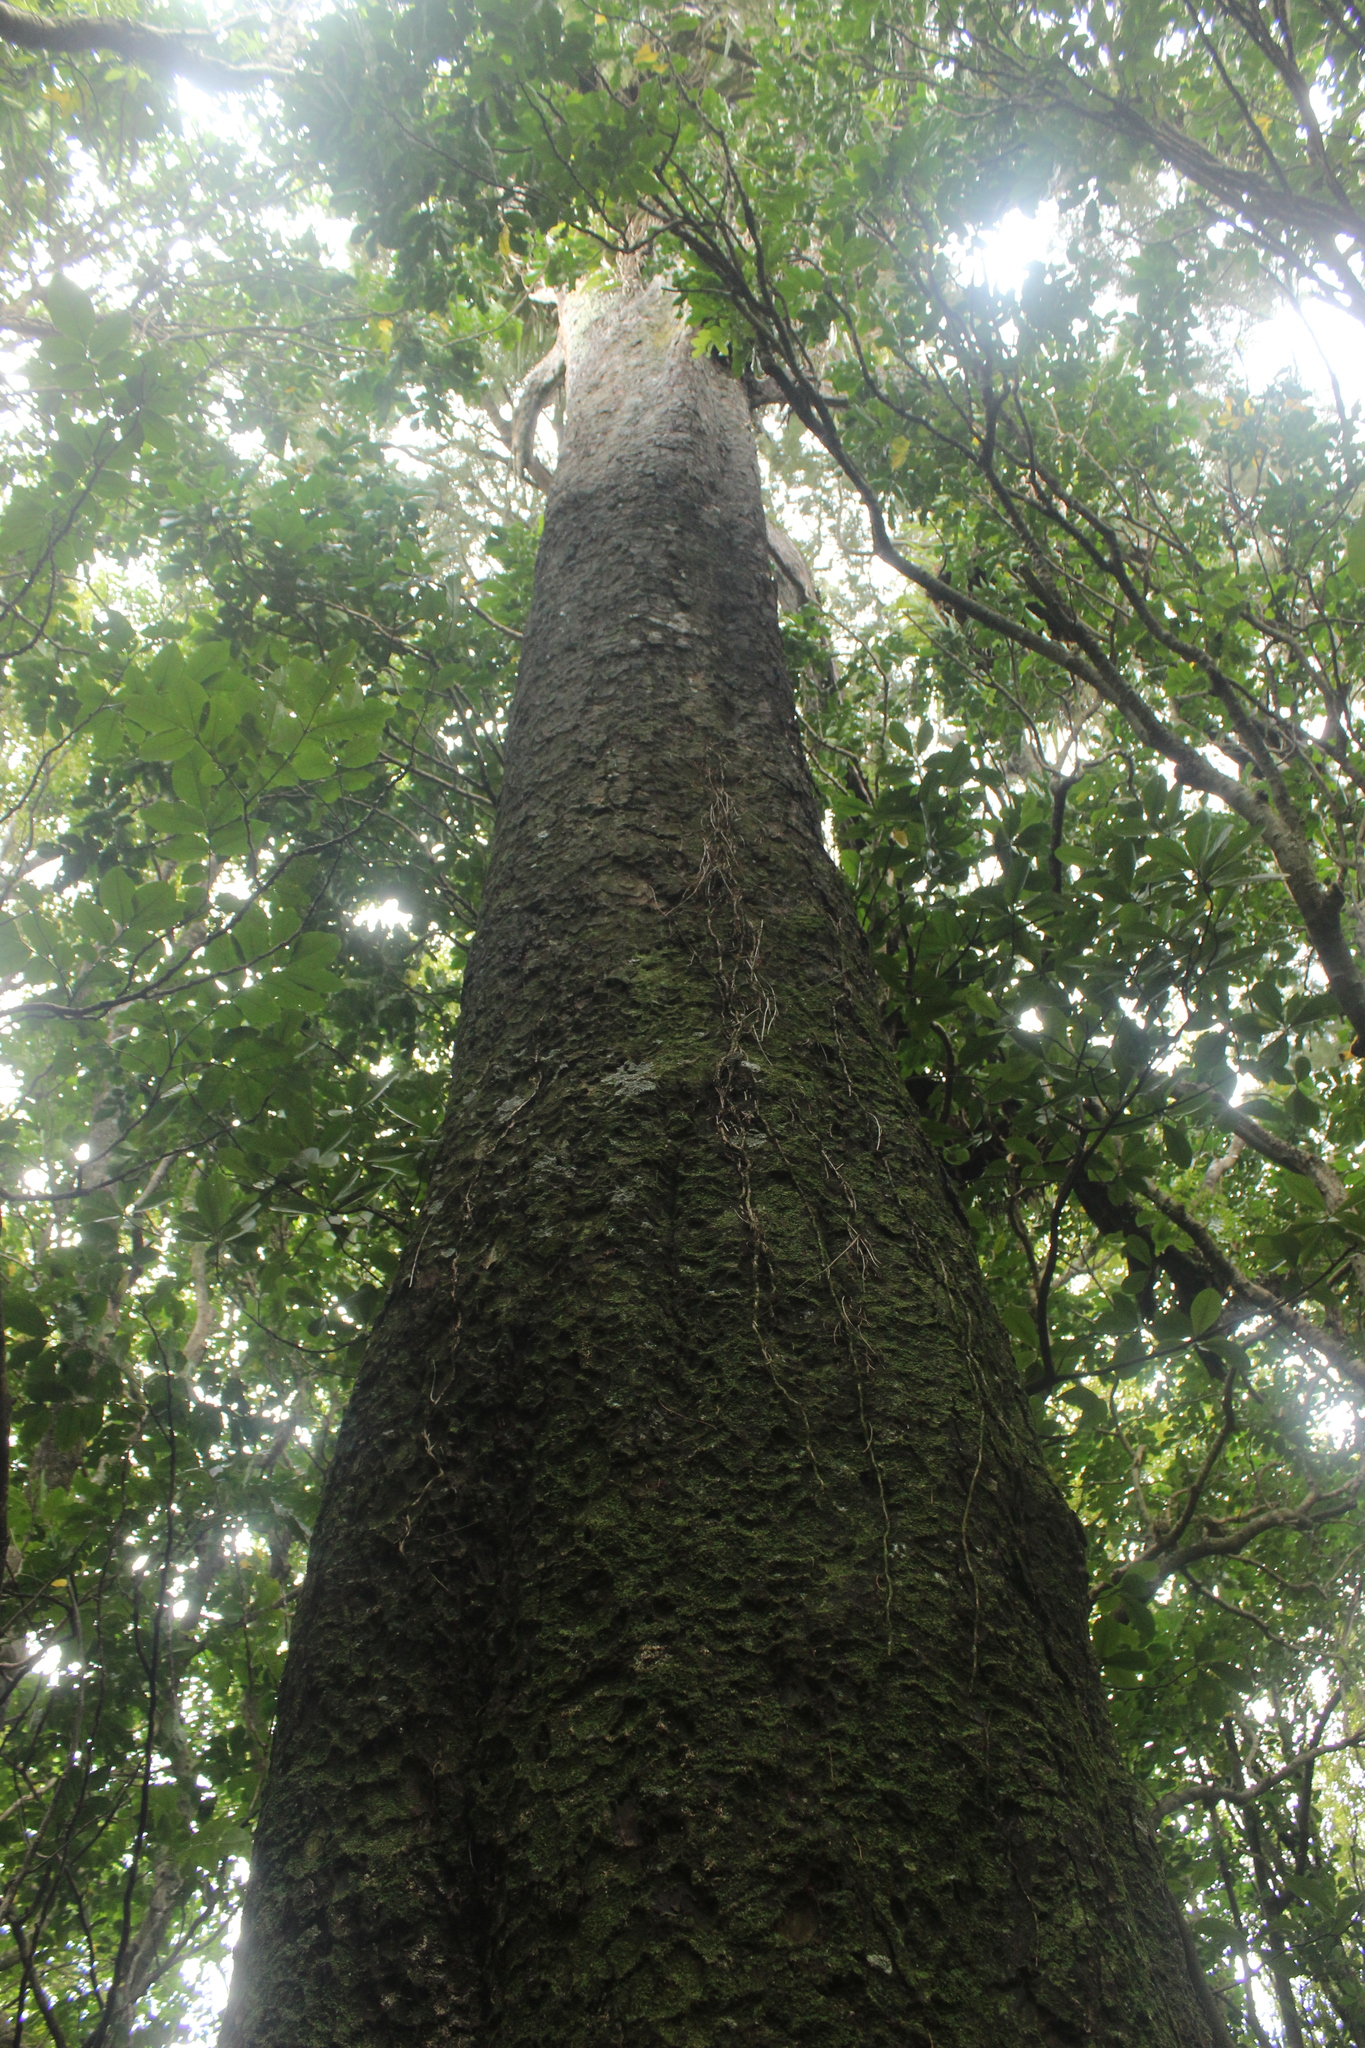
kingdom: Plantae
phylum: Tracheophyta
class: Pinopsida
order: Pinales
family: Podocarpaceae
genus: Dacrycarpus
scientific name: Dacrycarpus dacrydioides
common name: White pine
